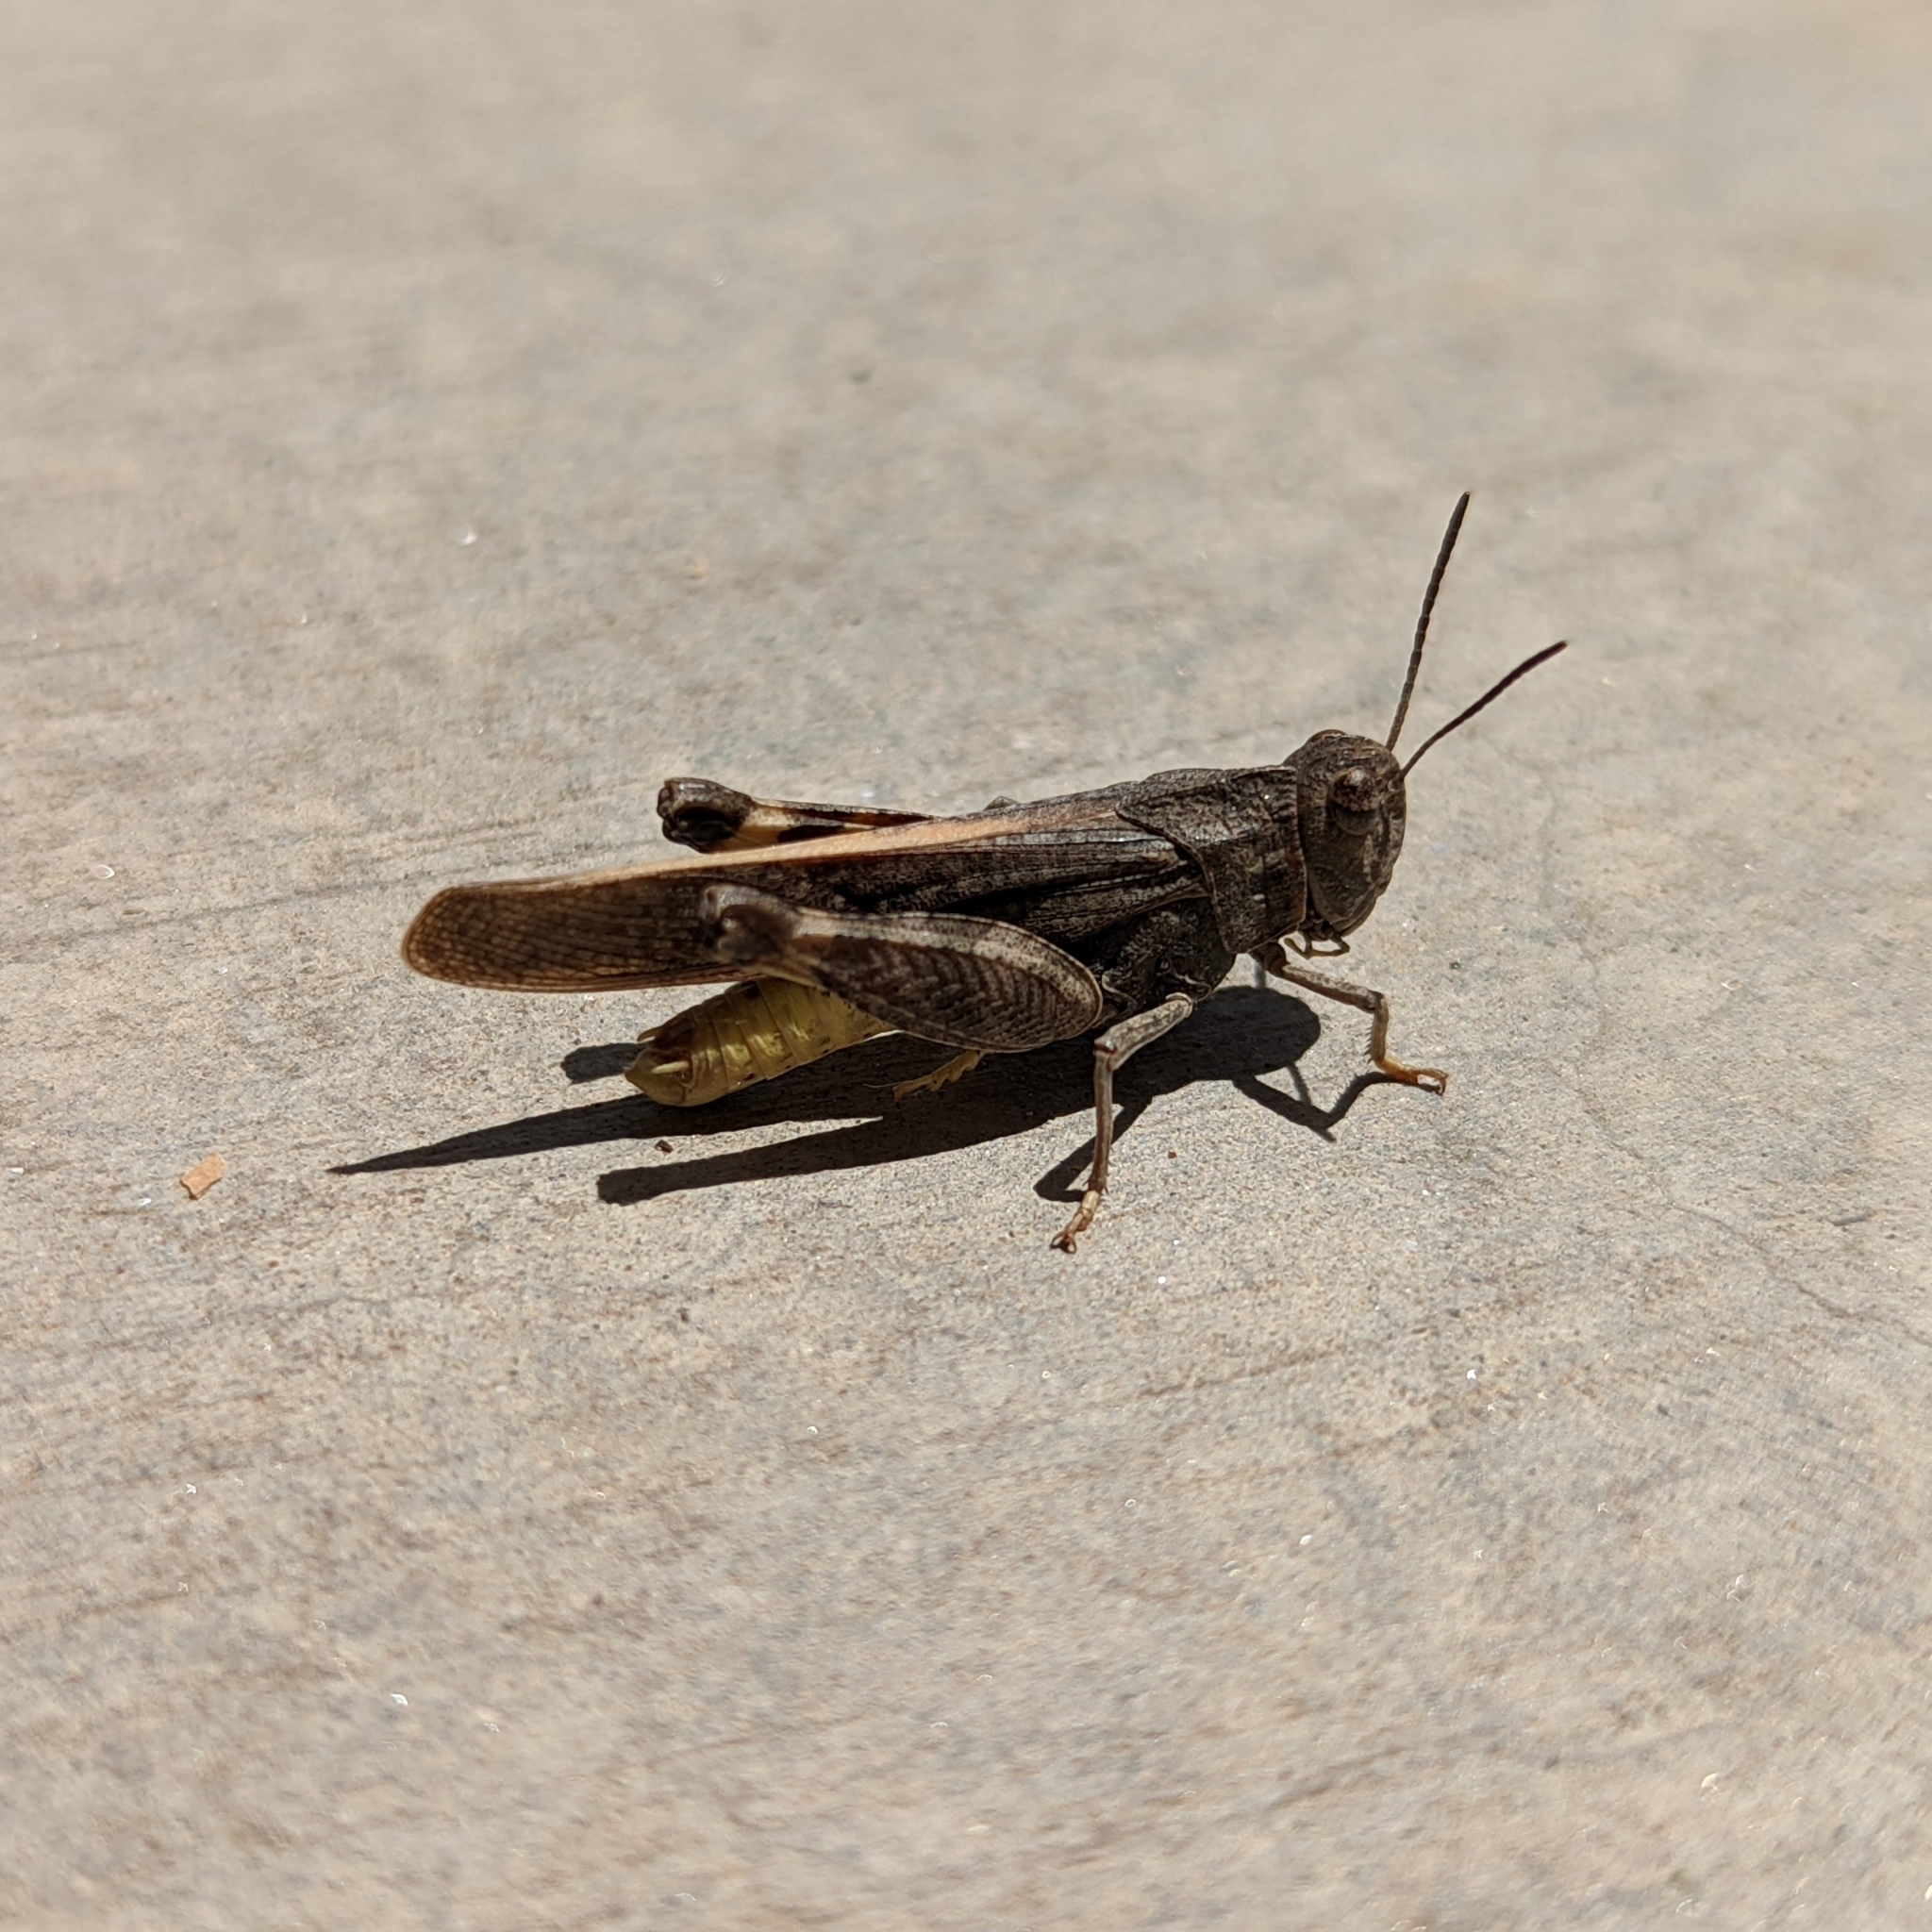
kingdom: Animalia
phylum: Arthropoda
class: Insecta
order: Orthoptera
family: Acrididae
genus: Arphia
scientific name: Arphia conspersa
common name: Speckle-winged rangeland grasshopper
